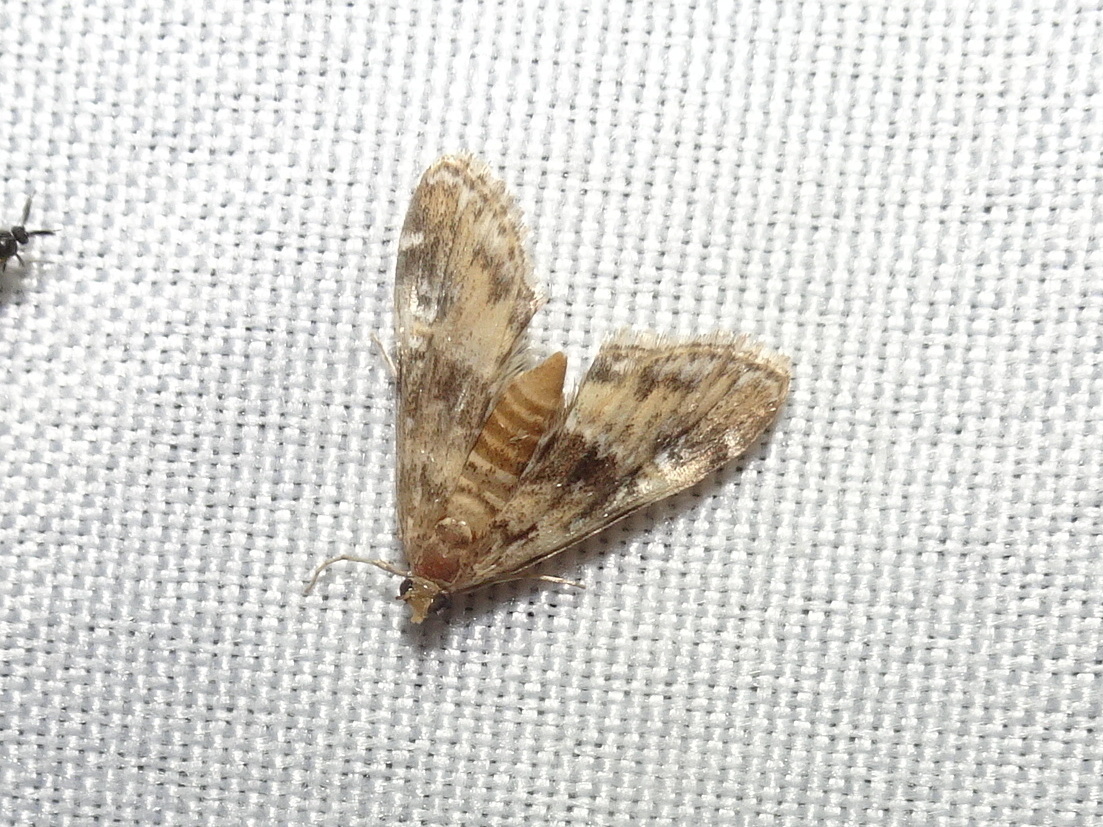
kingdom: Animalia
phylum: Arthropoda
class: Insecta
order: Lepidoptera
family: Crambidae
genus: Elophila
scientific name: Elophila obliteralis
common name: Waterlily leafcutter moth
